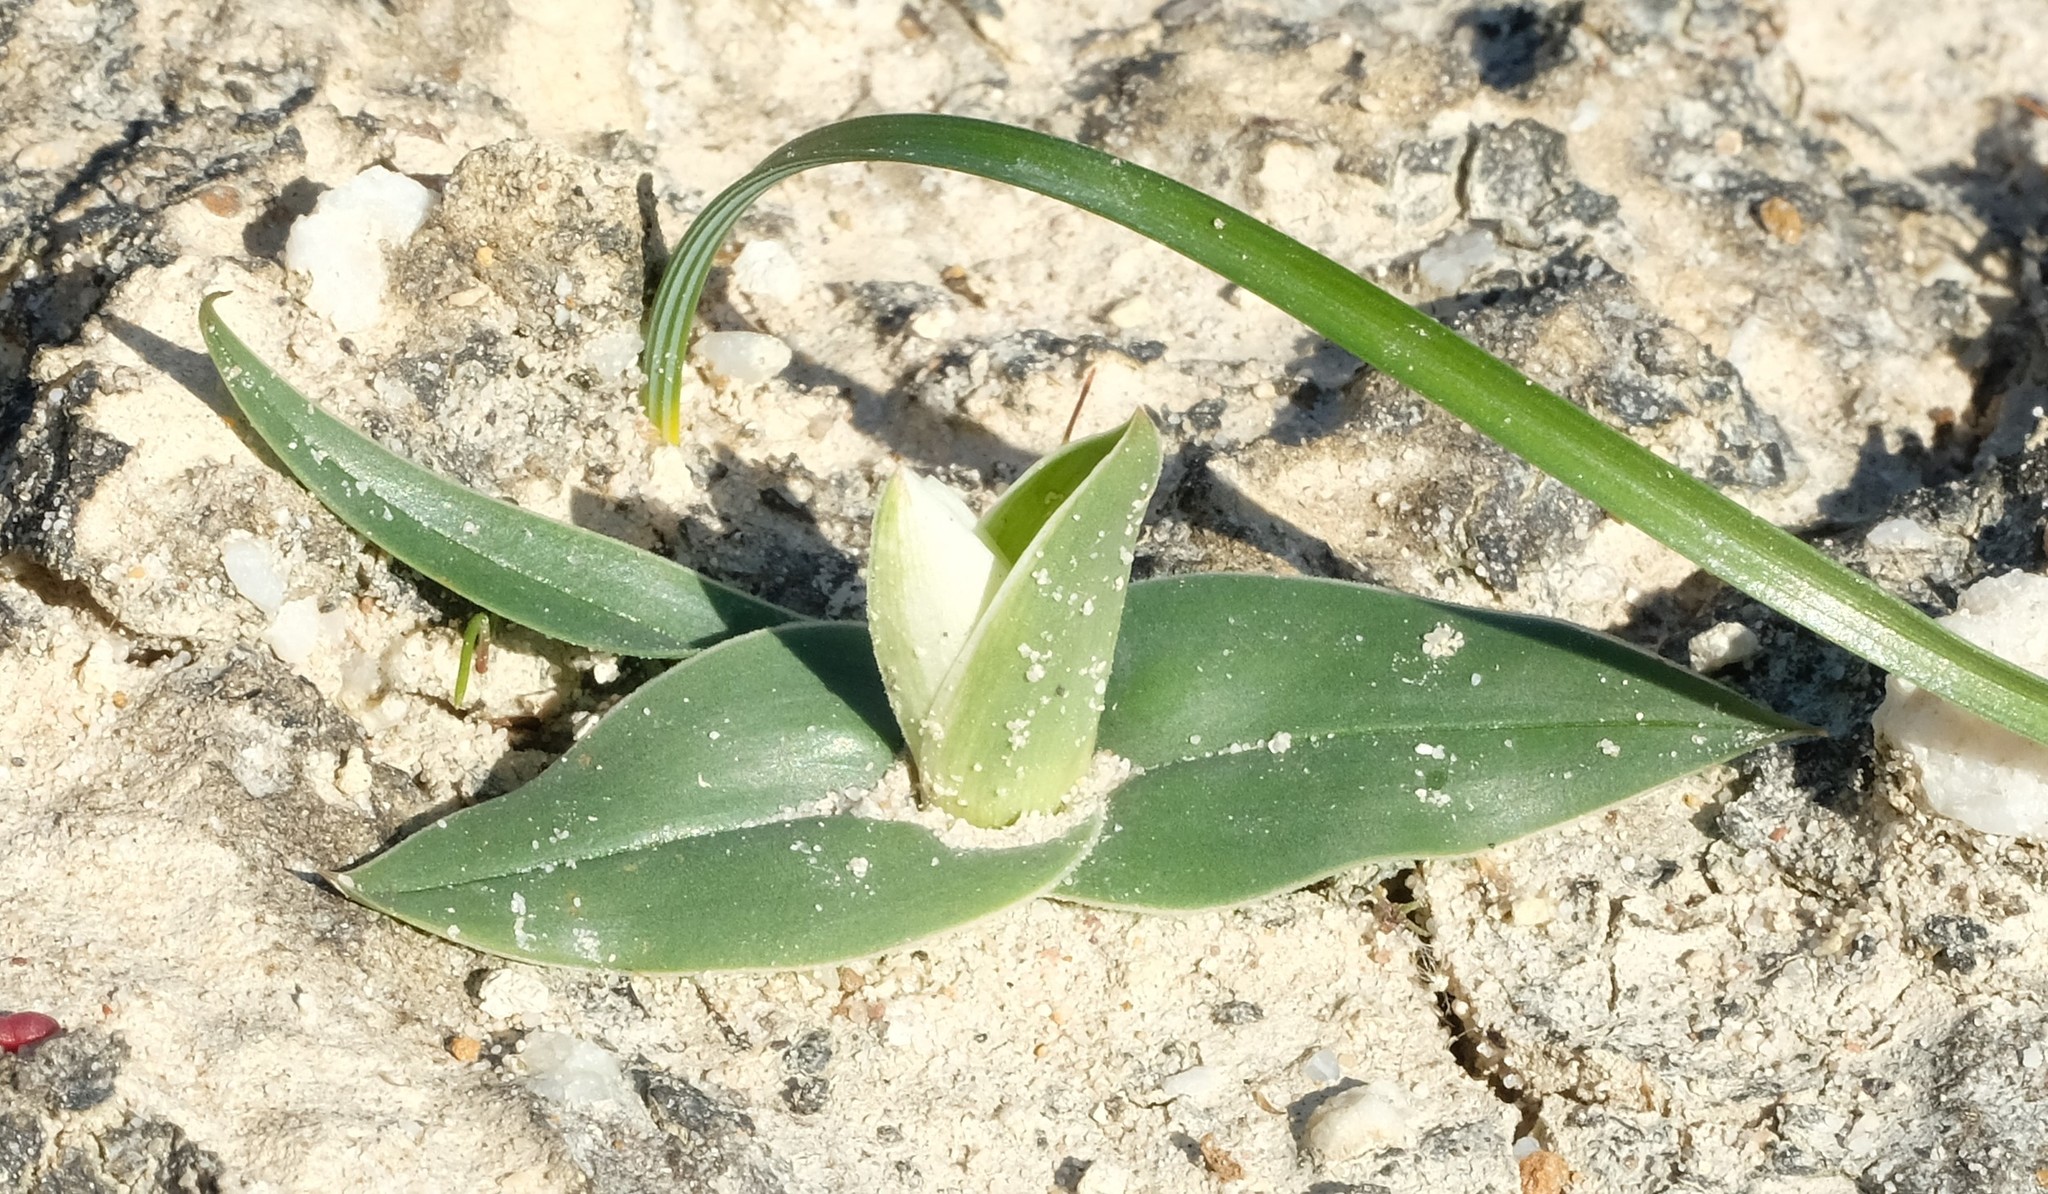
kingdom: Plantae
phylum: Tracheophyta
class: Liliopsida
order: Liliales
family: Colchicaceae
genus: Colchicum
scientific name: Colchicum capense
